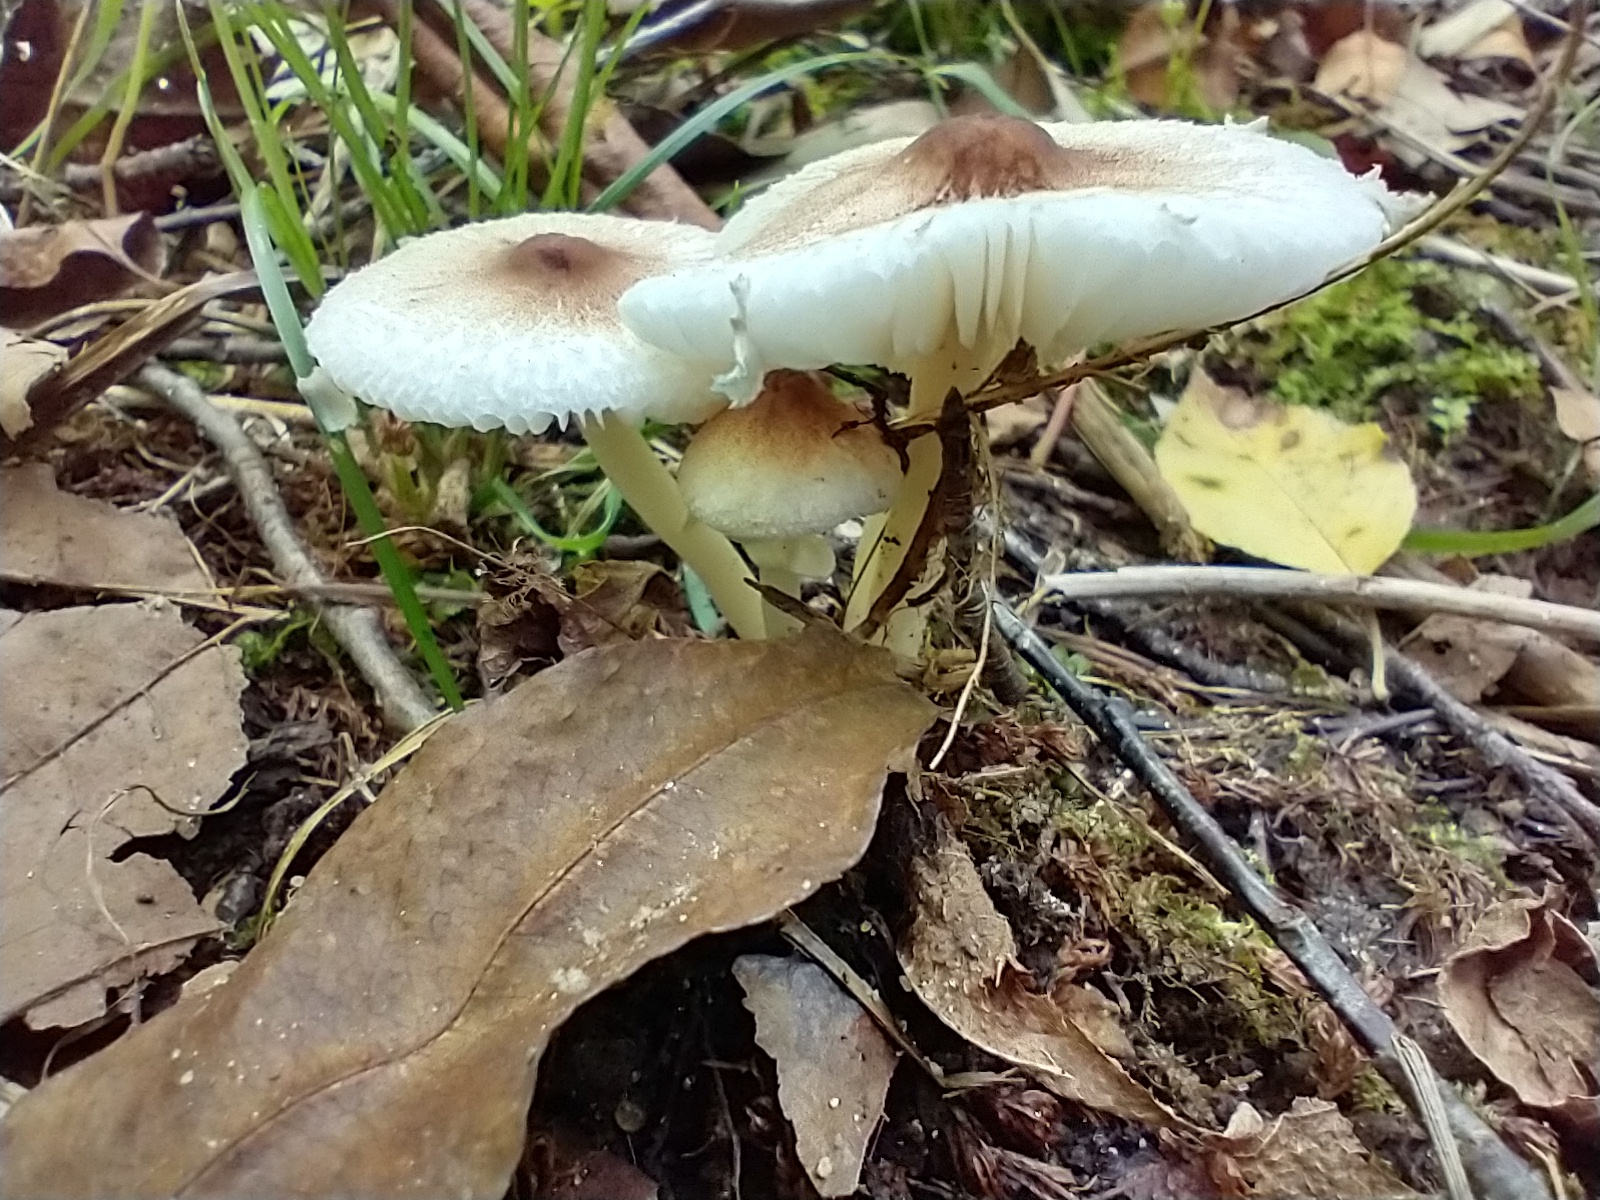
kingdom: Fungi
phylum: Basidiomycota
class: Agaricomycetes
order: Agaricales
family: Agaricaceae
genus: Lepiota
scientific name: Lepiota cristata
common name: Stinking dapperling
